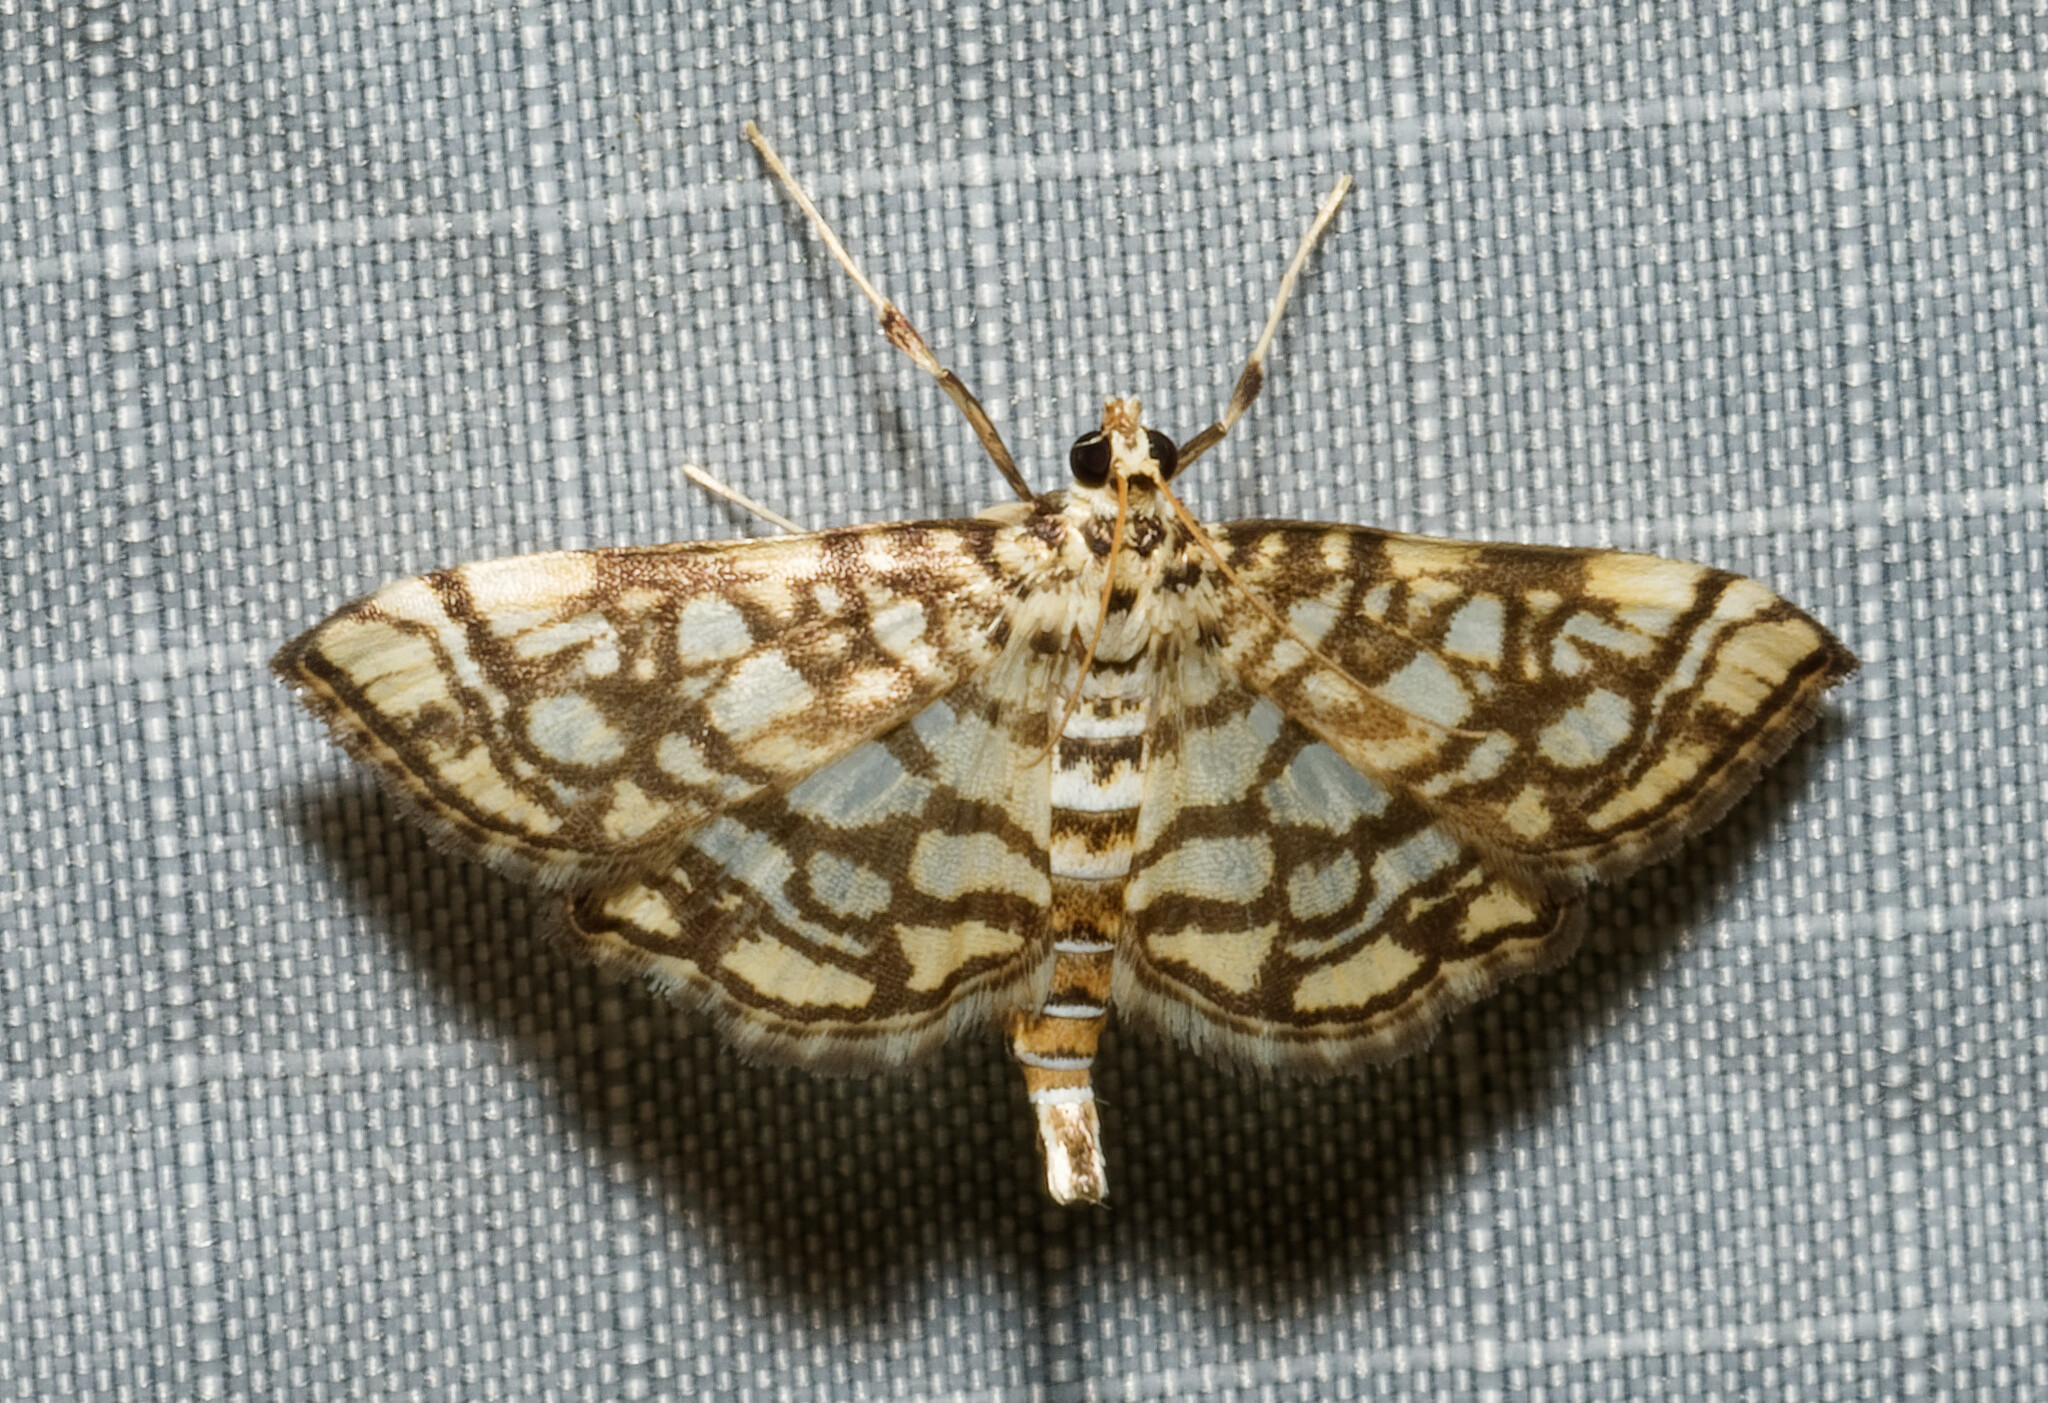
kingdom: Animalia
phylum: Arthropoda
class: Insecta
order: Lepidoptera
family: Crambidae
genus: Lygropia
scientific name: Lygropia rivulalis
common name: Bog lygropia moth
